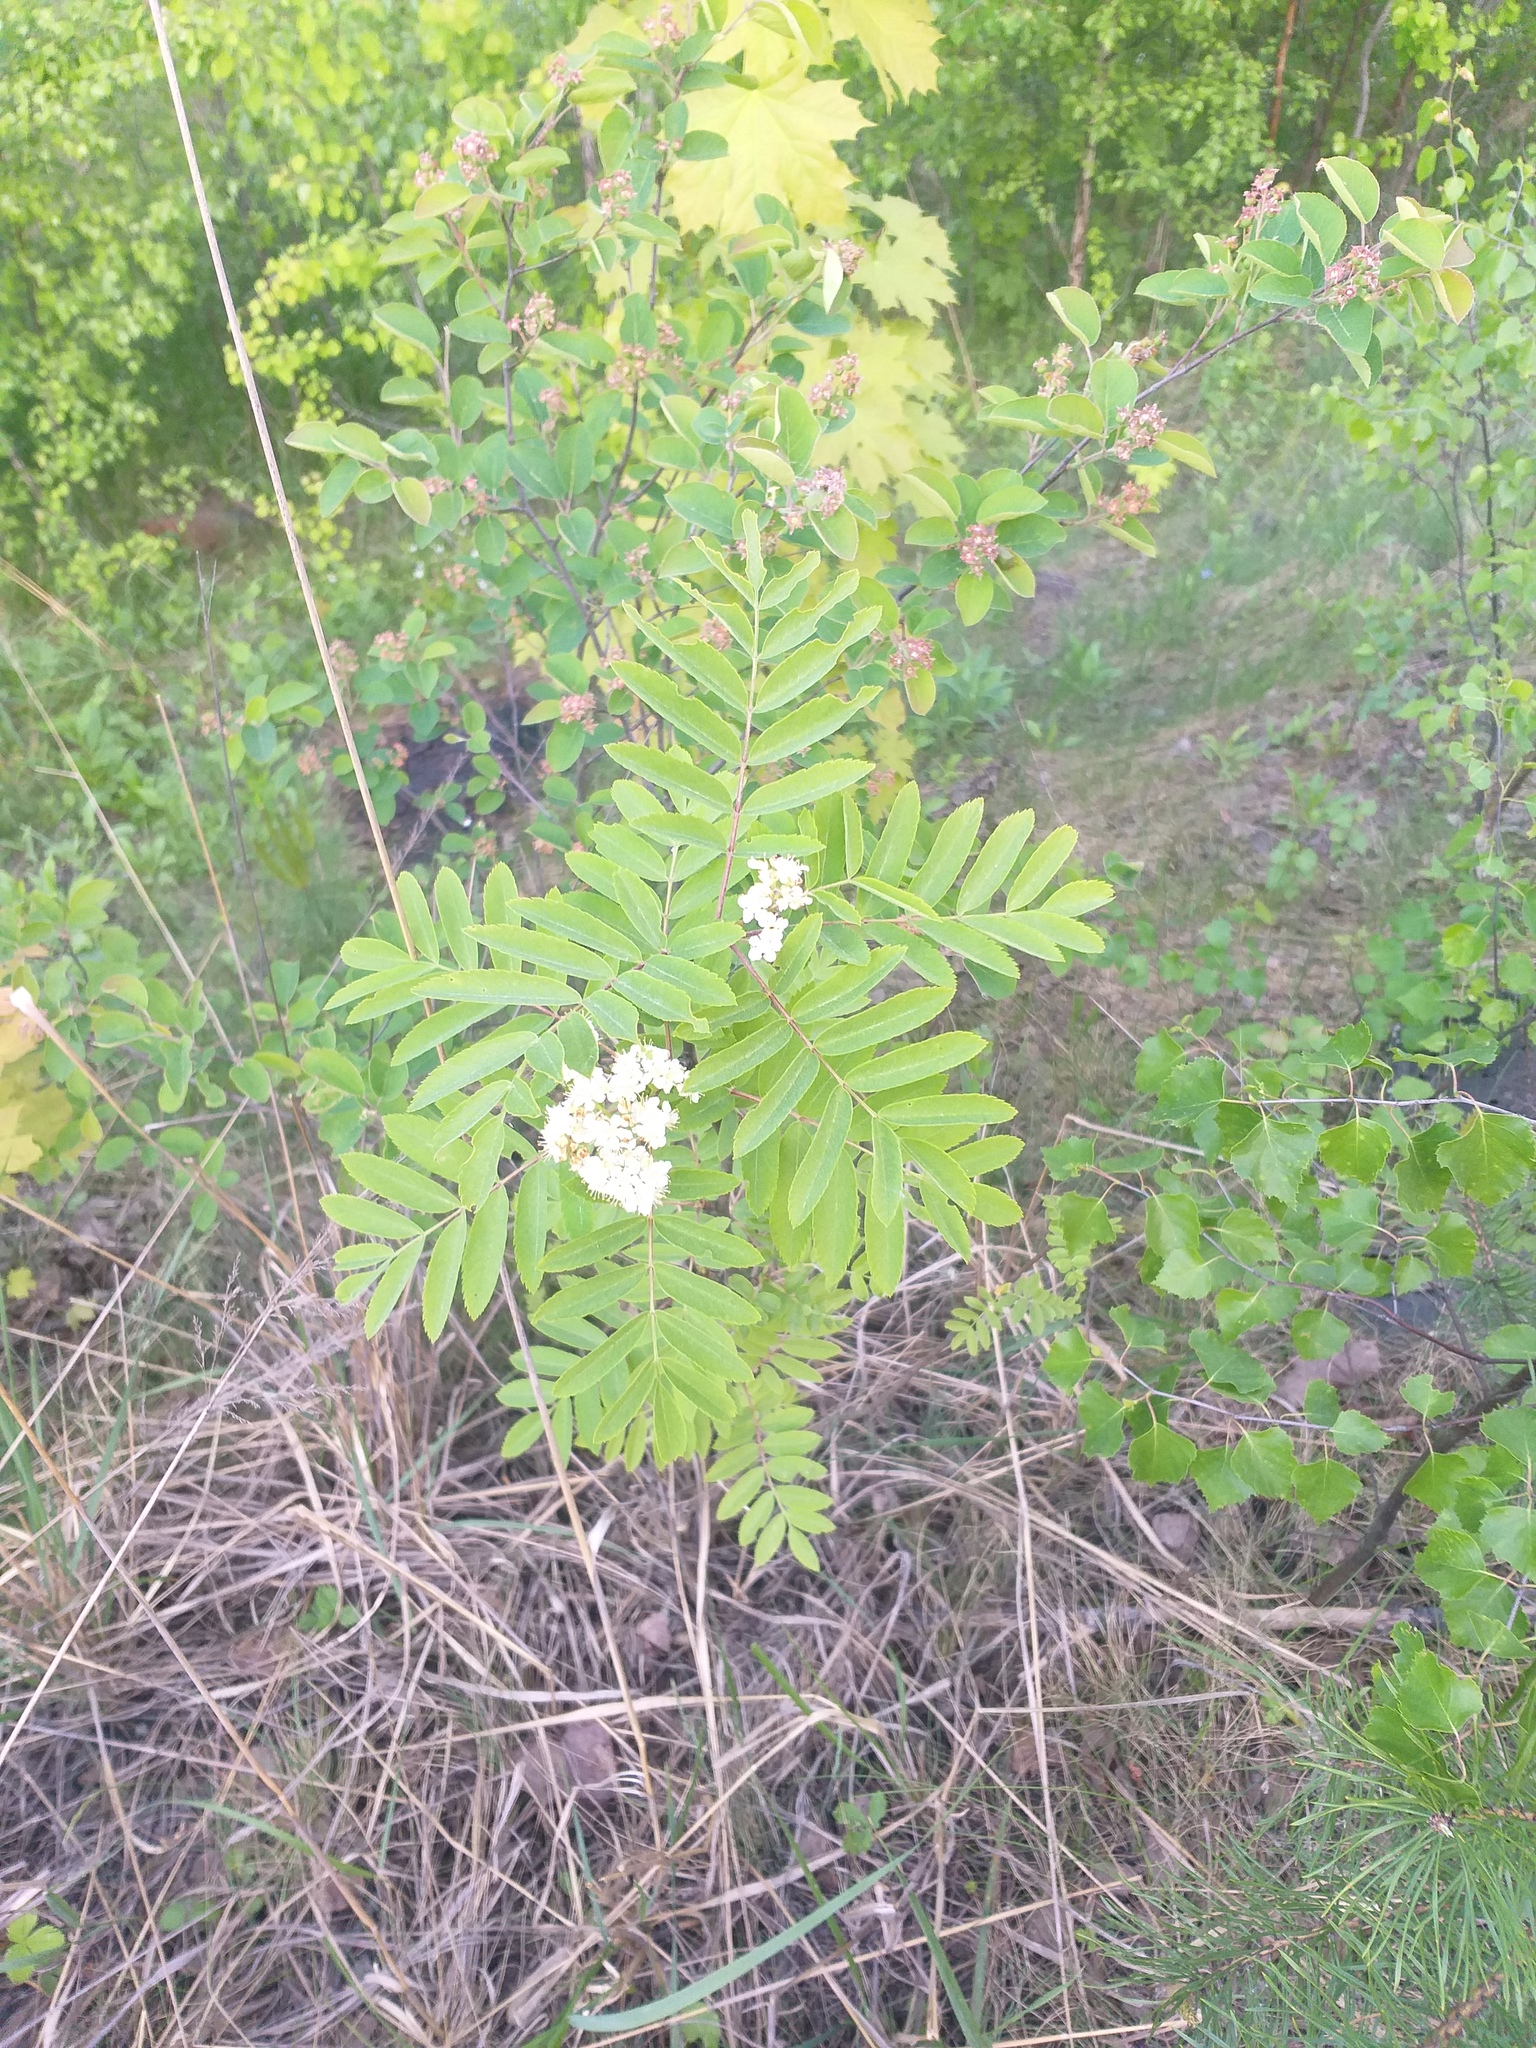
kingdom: Plantae
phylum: Tracheophyta
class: Magnoliopsida
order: Rosales
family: Rosaceae
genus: Sorbus
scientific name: Sorbus aucuparia
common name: Rowan
